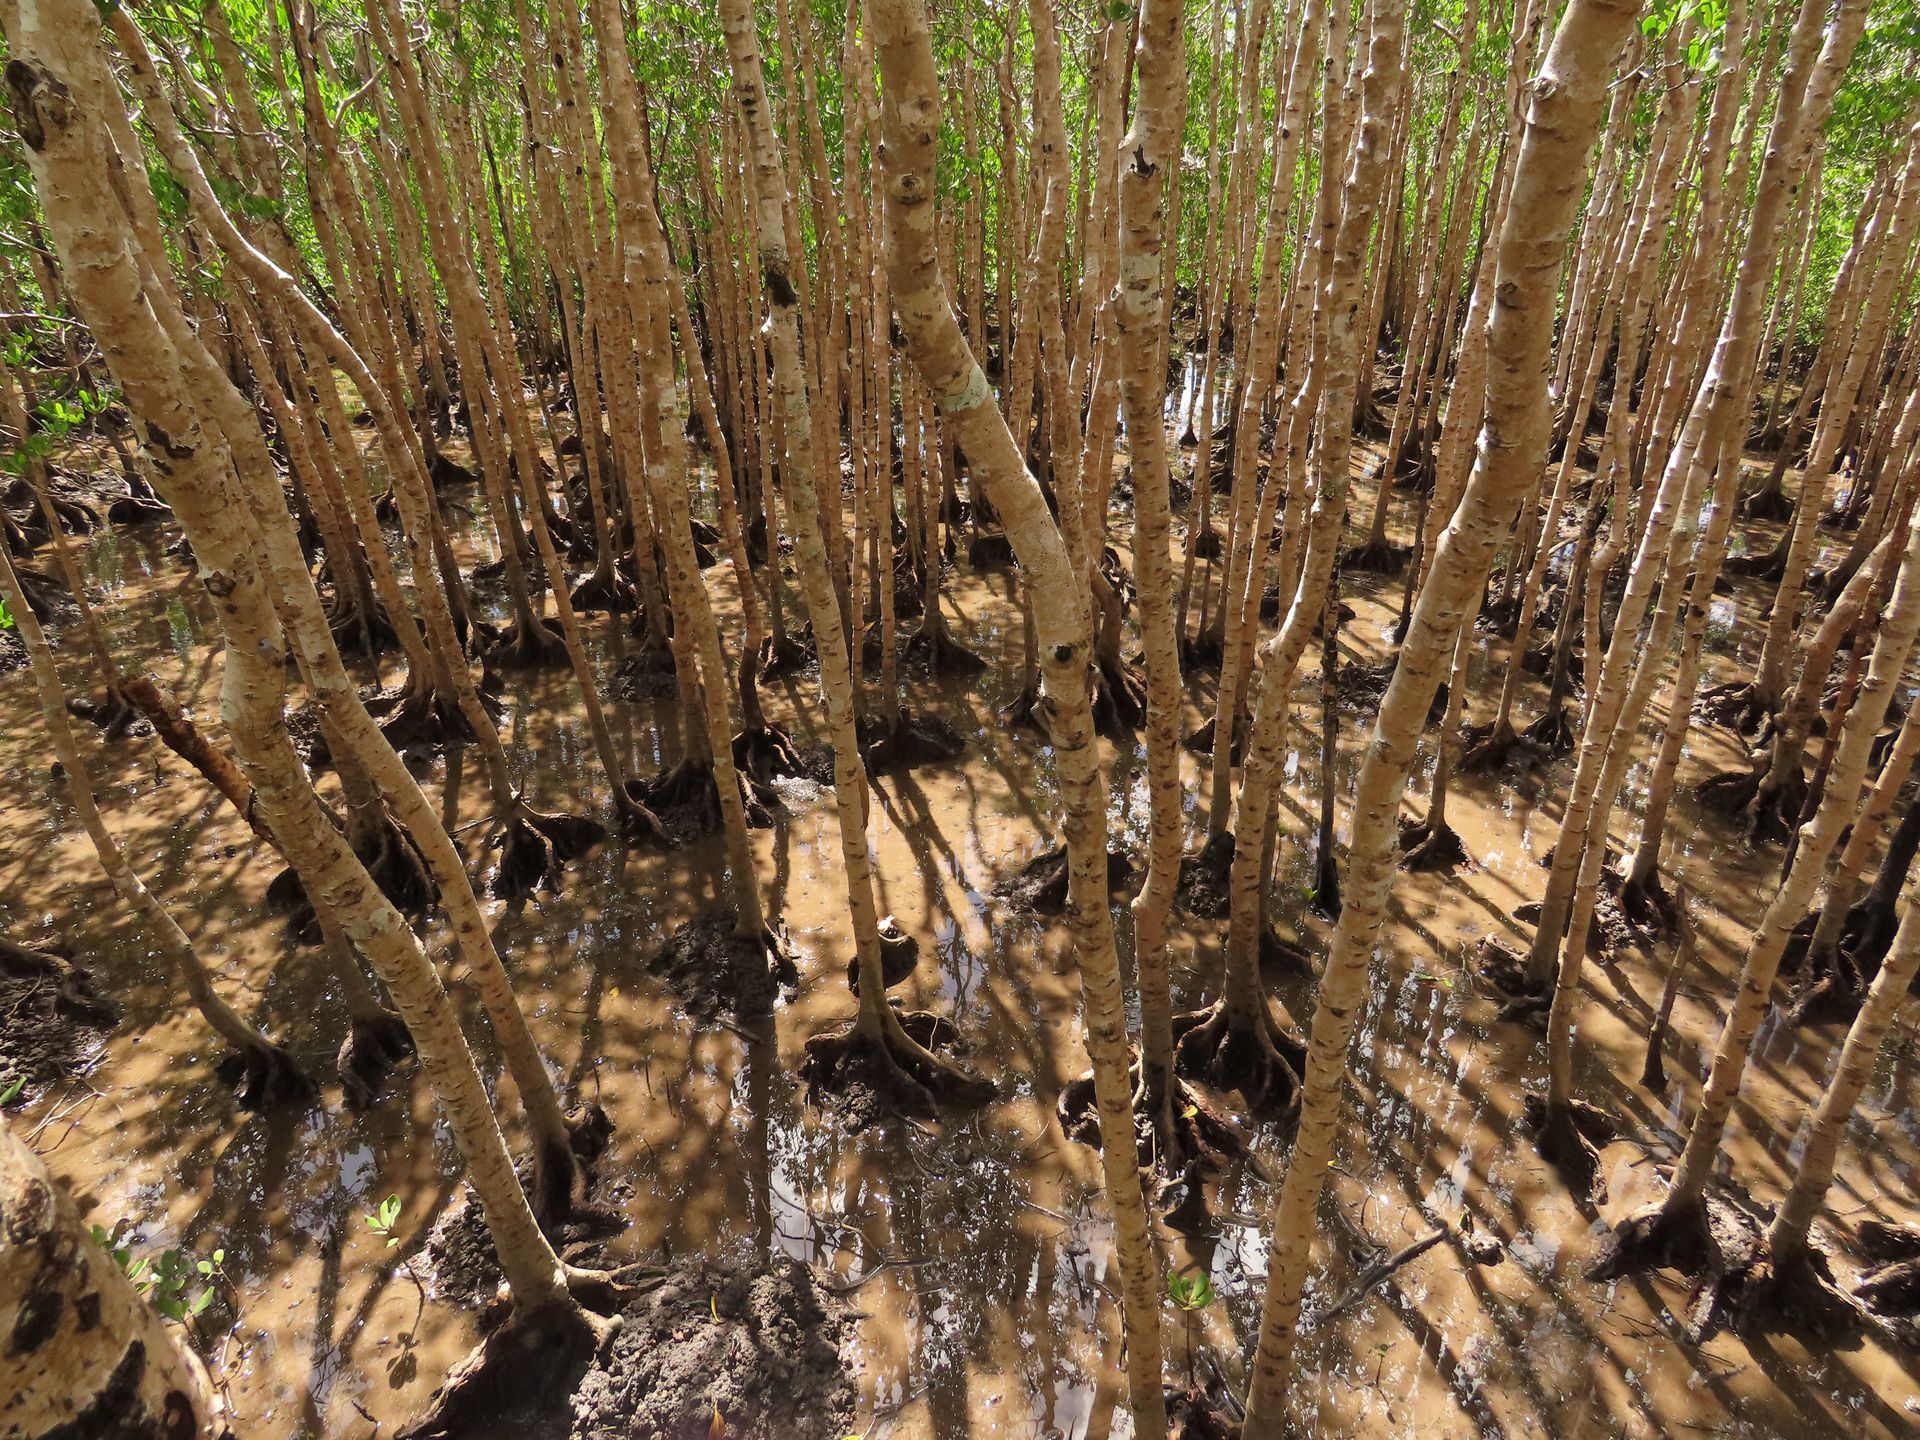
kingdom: Plantae
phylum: Tracheophyta
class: Magnoliopsida
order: Malpighiales
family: Rhizophoraceae
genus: Ceriops
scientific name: Ceriops australis
